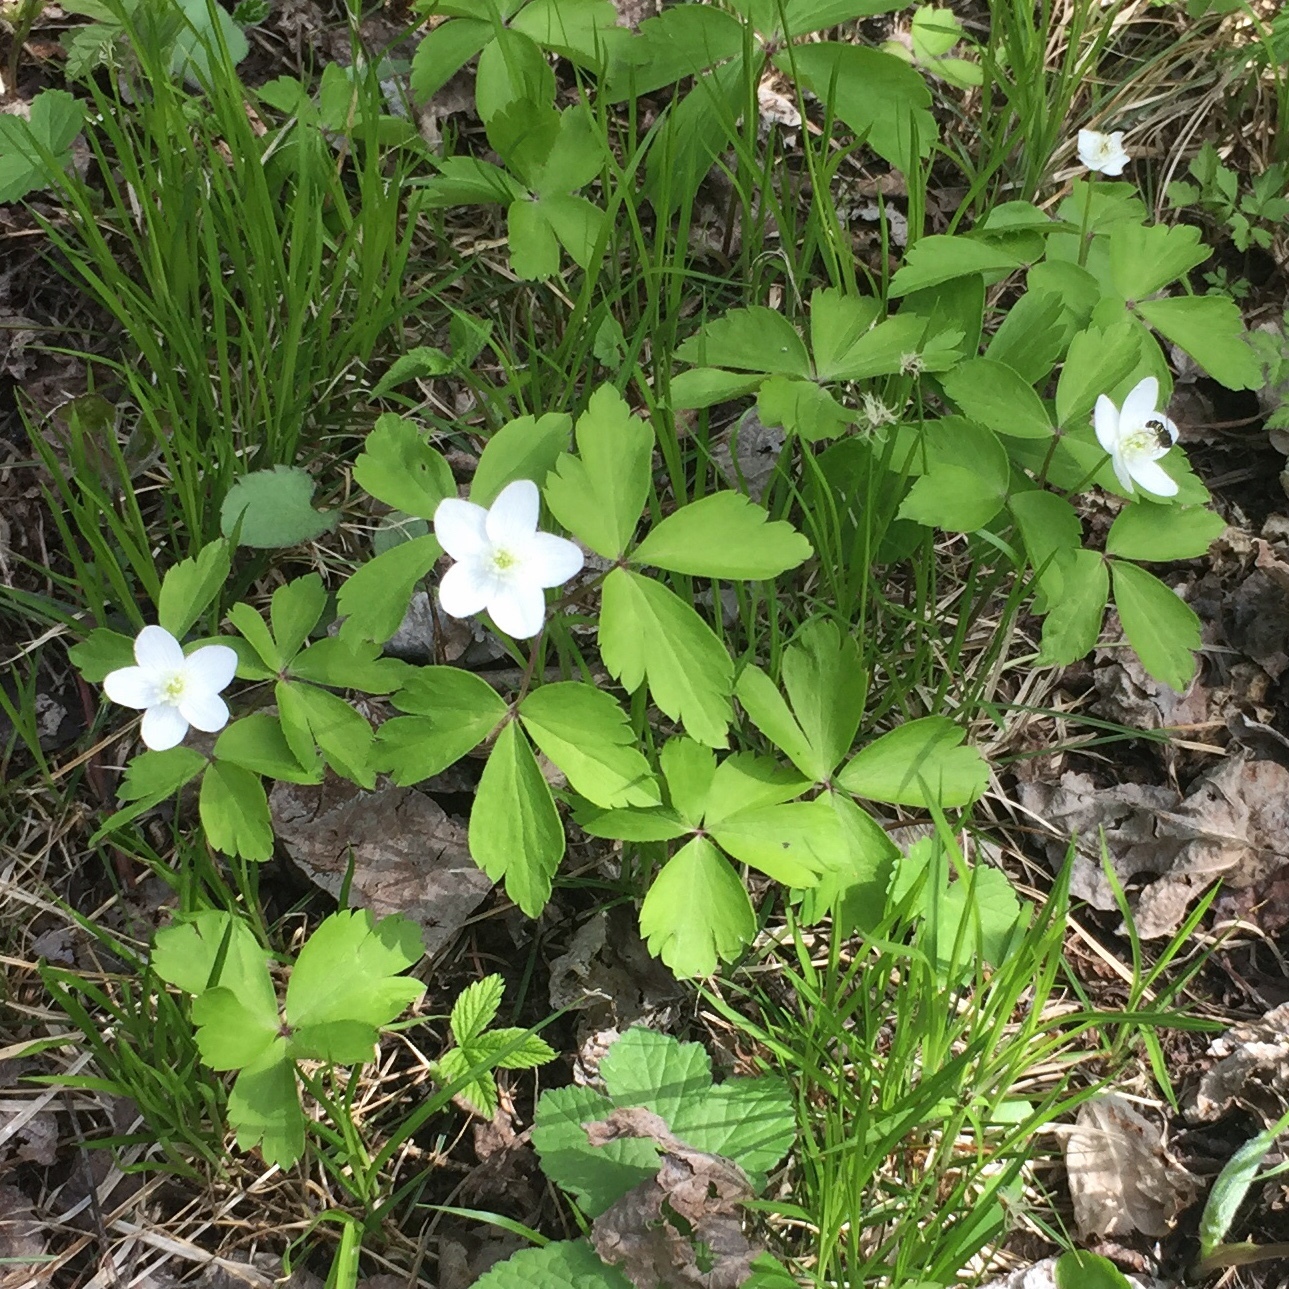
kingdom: Plantae
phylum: Tracheophyta
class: Magnoliopsida
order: Ranunculales
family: Ranunculaceae
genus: Anemone
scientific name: Anemone quinquefolia
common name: Wood anemone
